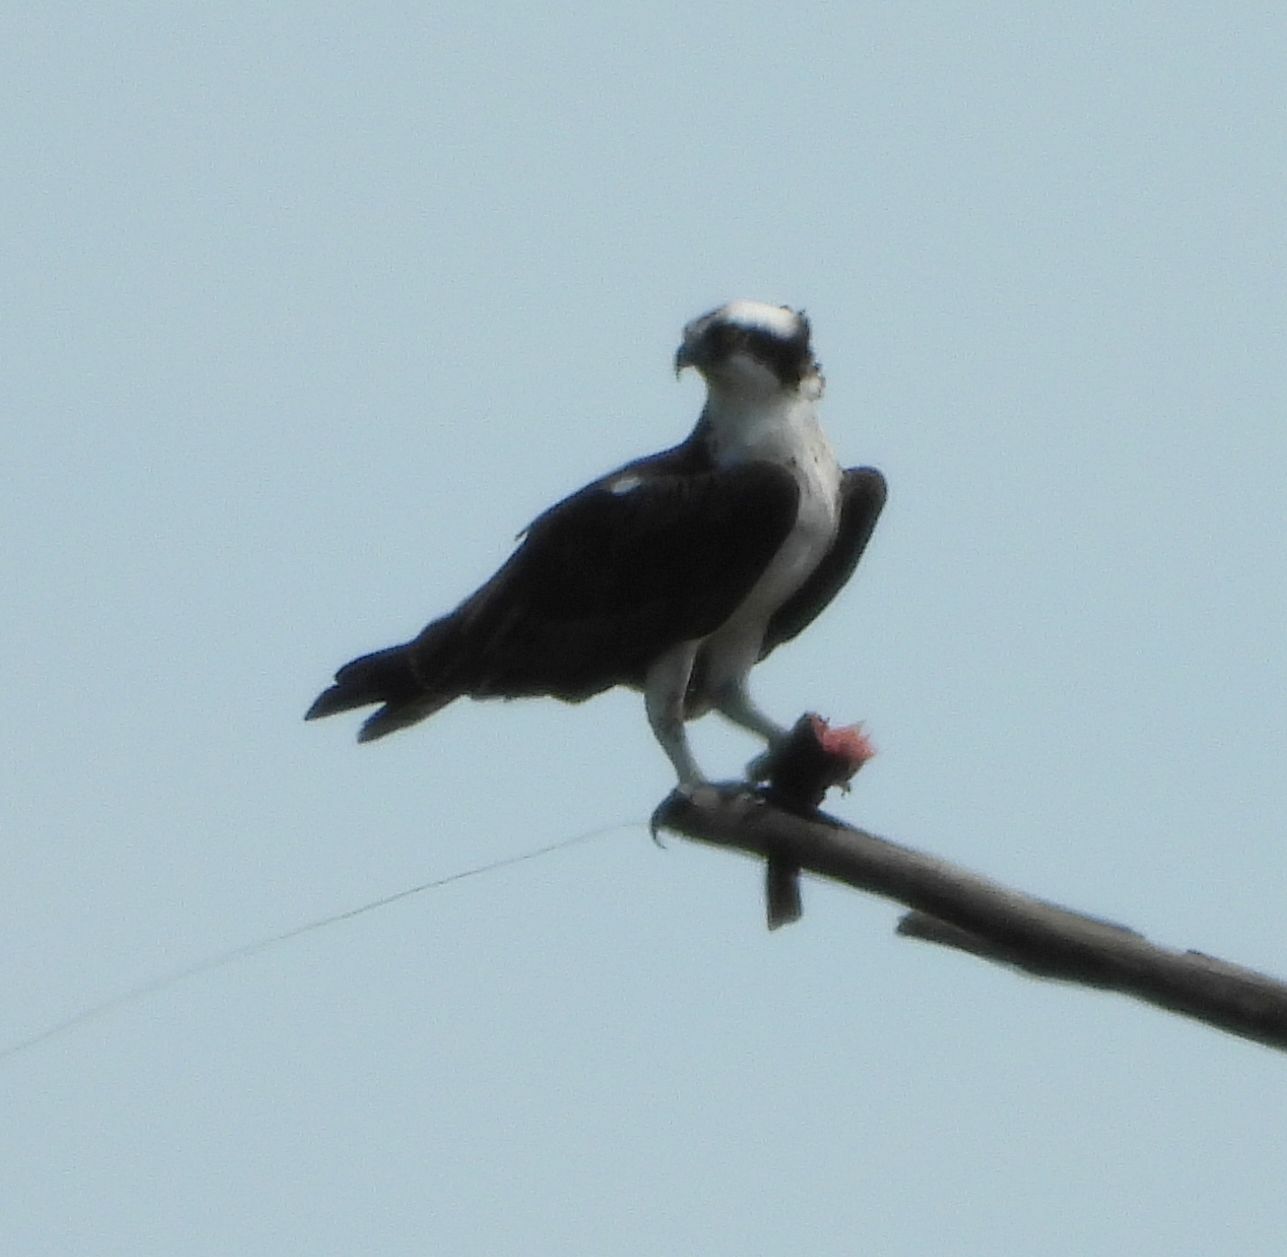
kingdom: Animalia
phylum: Chordata
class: Aves
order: Accipitriformes
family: Pandionidae
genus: Pandion
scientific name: Pandion haliaetus
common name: Osprey
